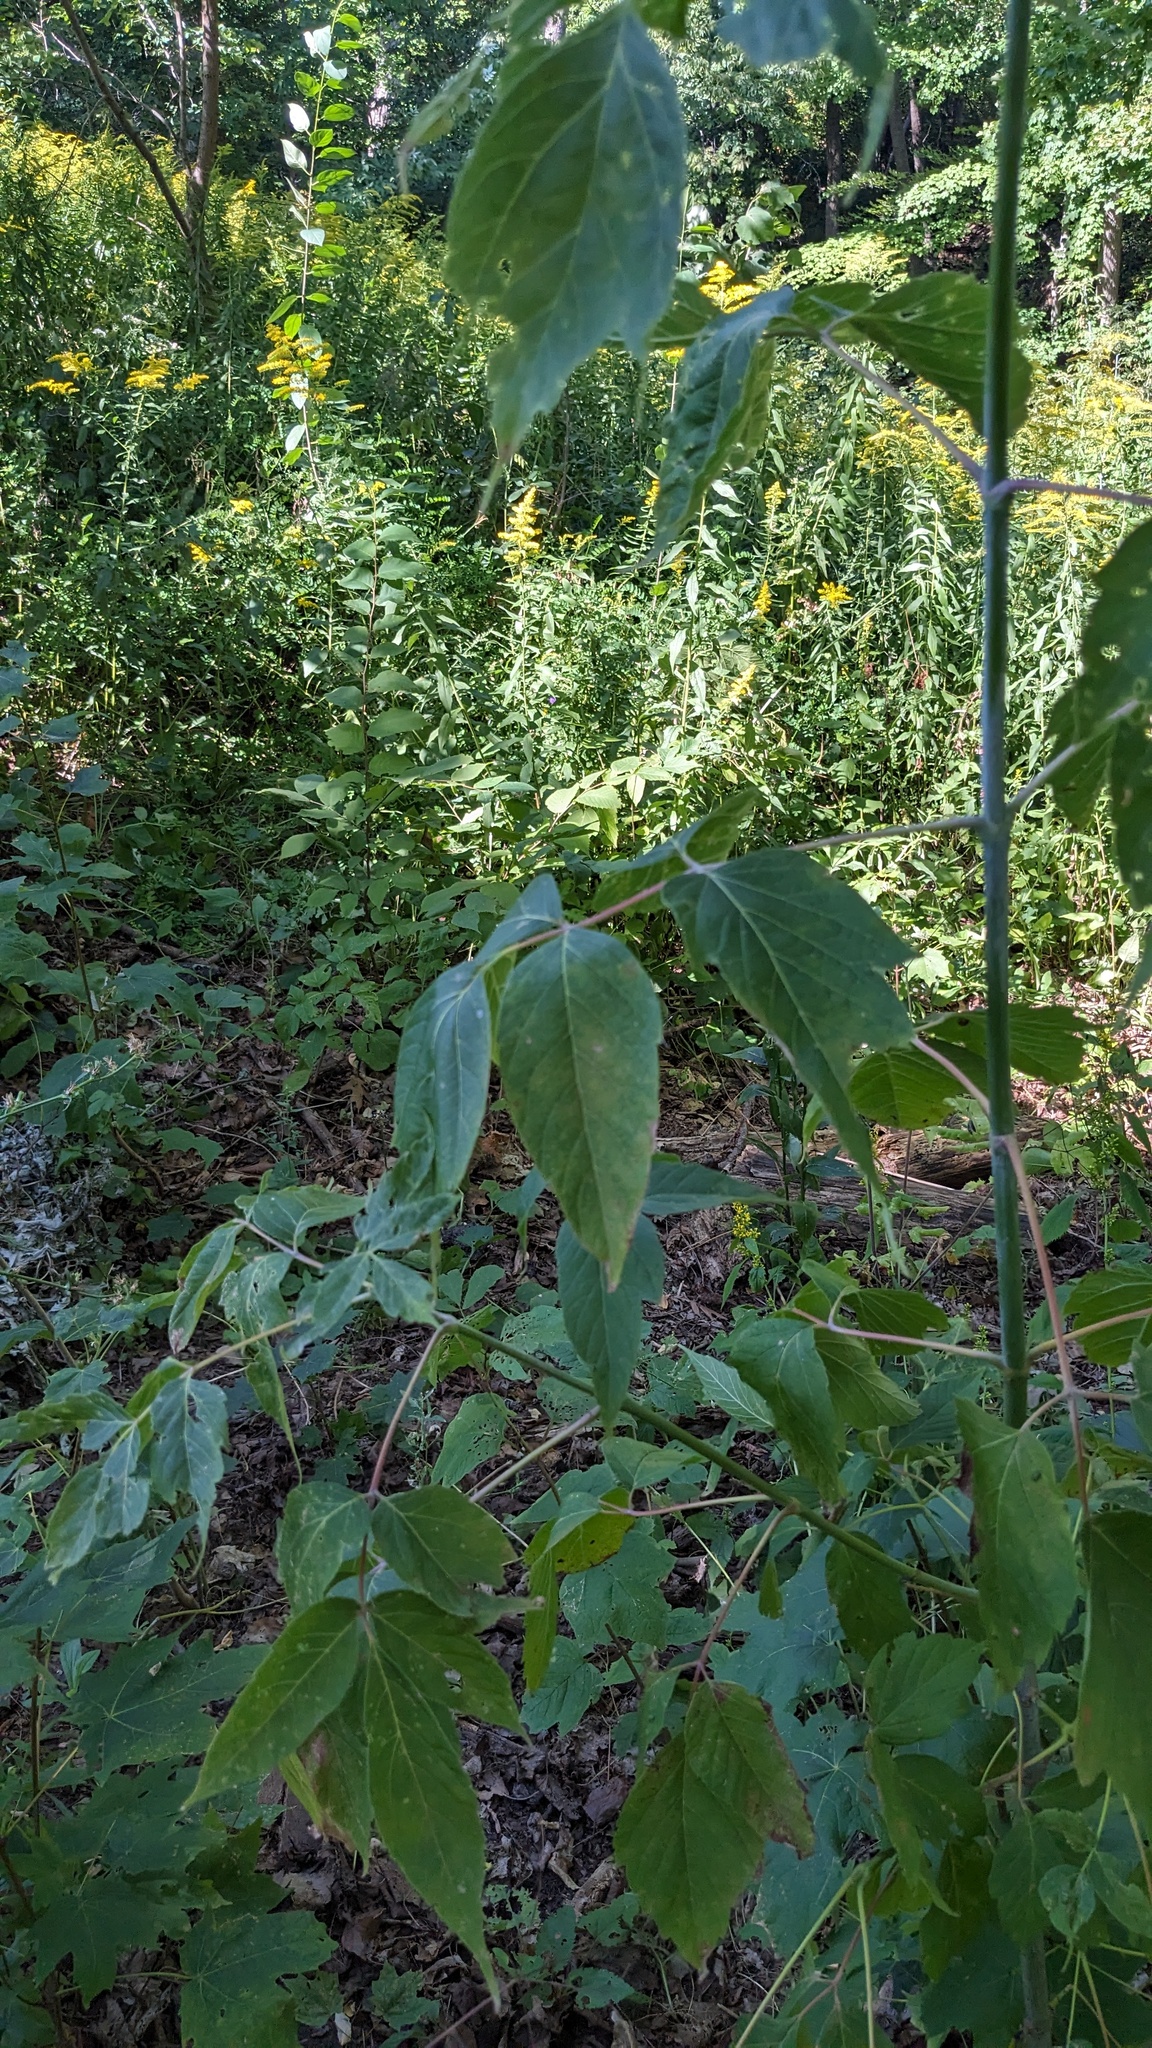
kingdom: Plantae
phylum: Tracheophyta
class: Magnoliopsida
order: Sapindales
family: Sapindaceae
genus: Acer
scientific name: Acer negundo
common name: Ashleaf maple
